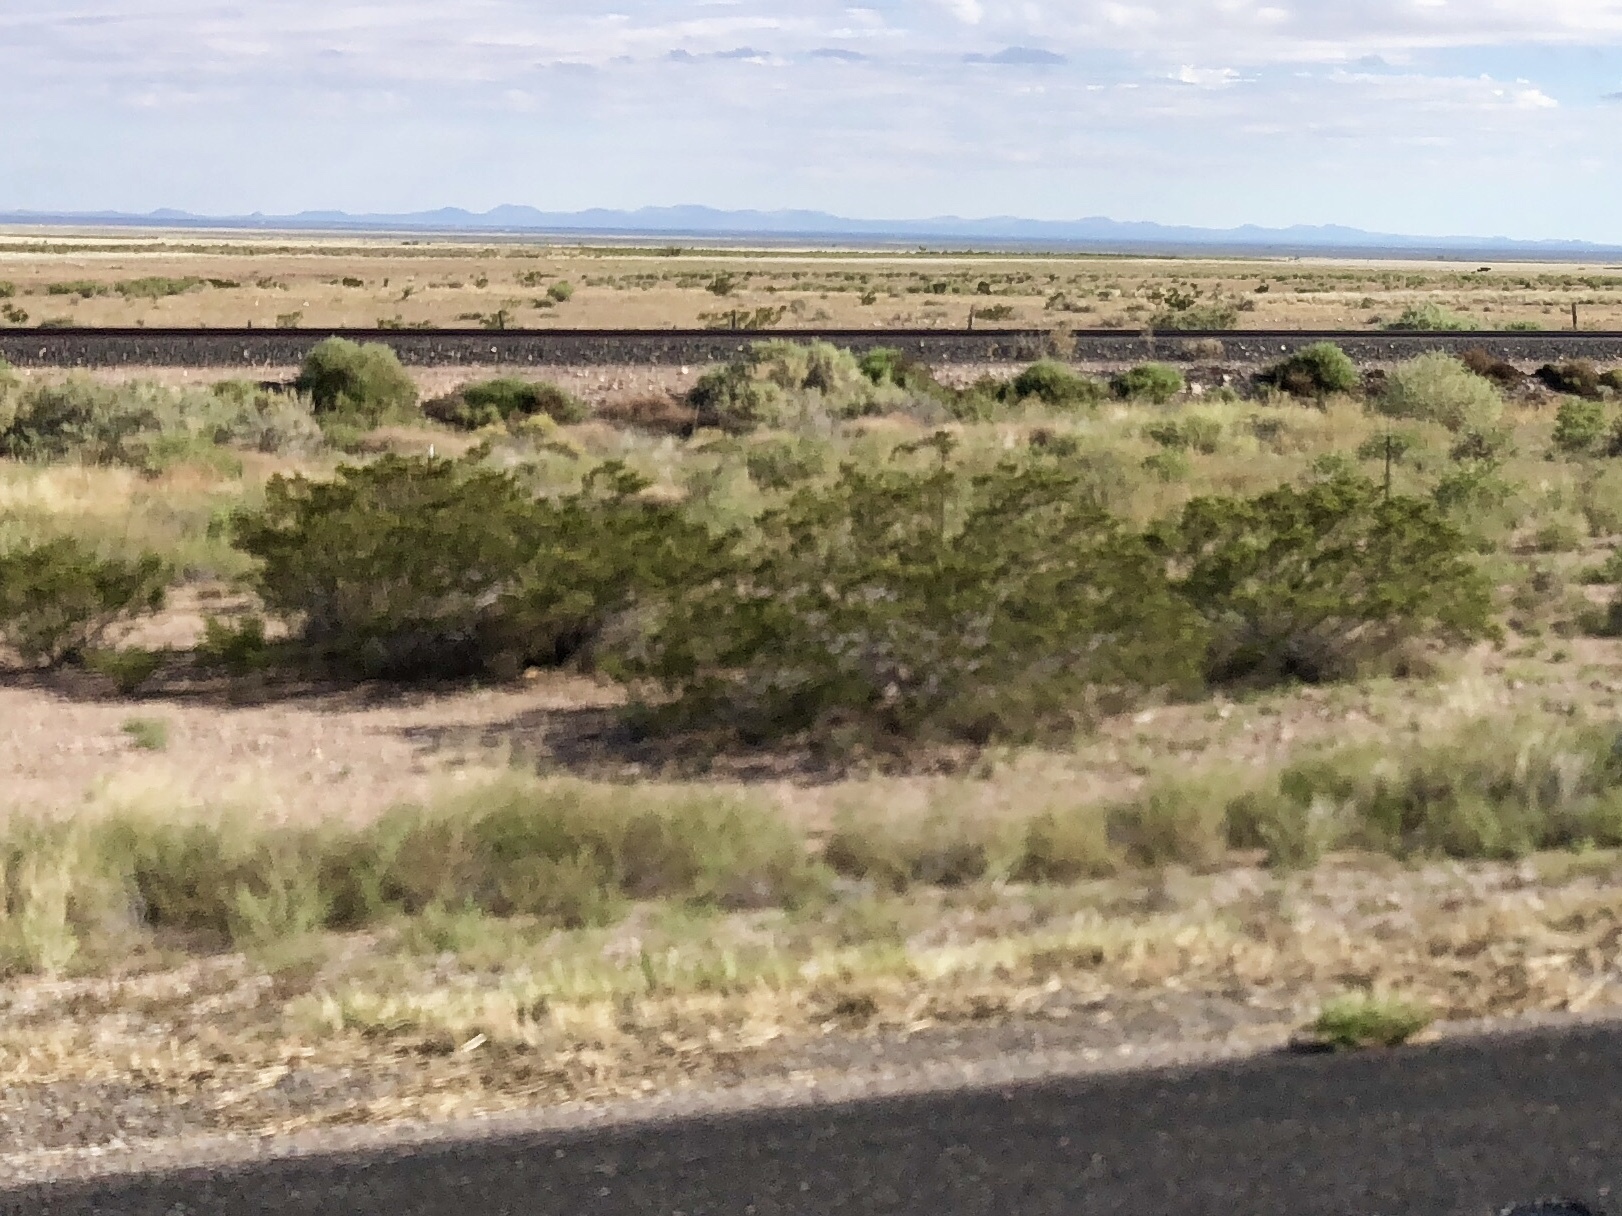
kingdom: Plantae
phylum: Tracheophyta
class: Magnoliopsida
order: Zygophyllales
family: Zygophyllaceae
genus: Larrea
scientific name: Larrea tridentata
